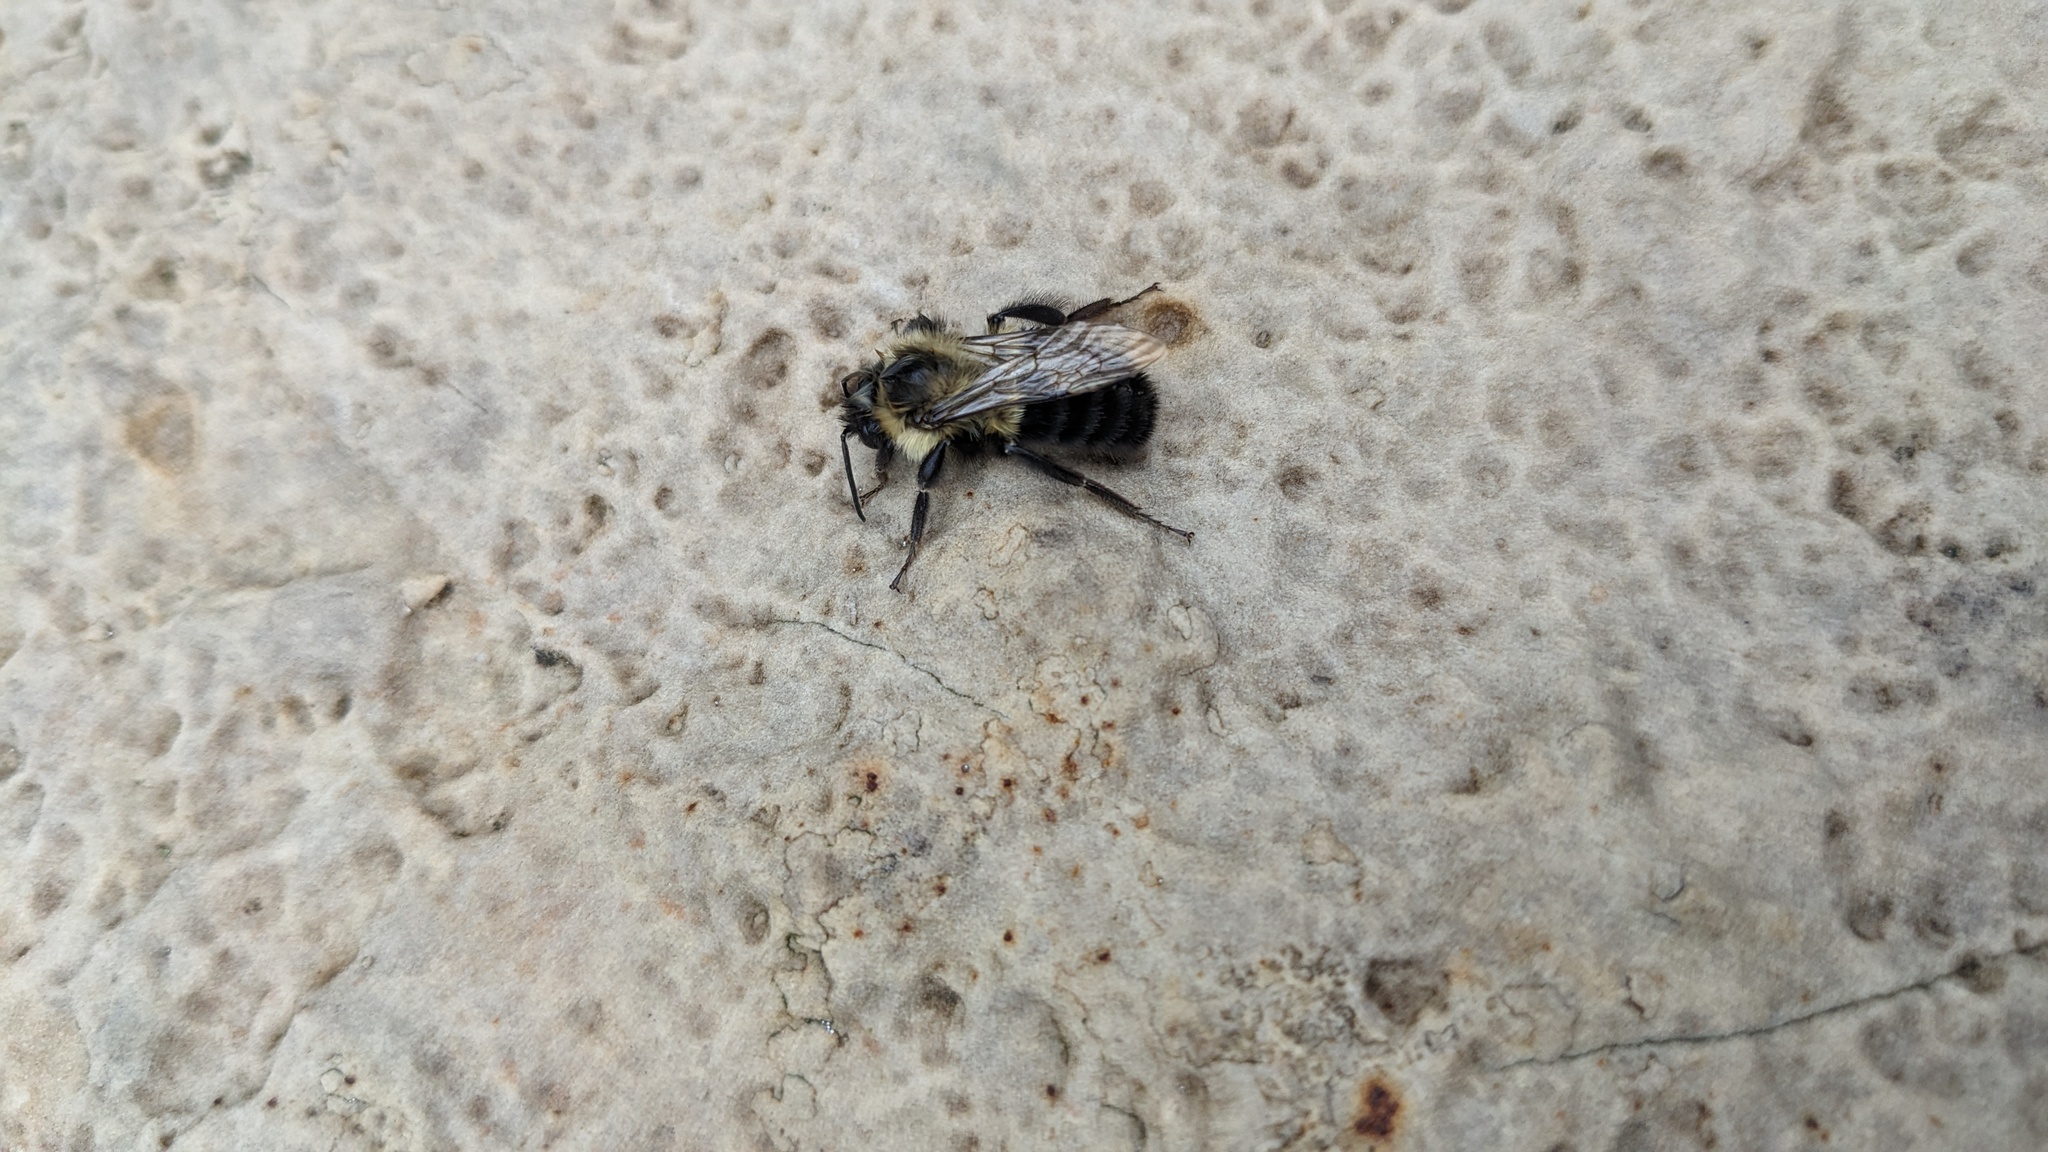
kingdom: Animalia
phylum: Arthropoda
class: Insecta
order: Hymenoptera
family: Apidae
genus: Bombus
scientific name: Bombus impatiens
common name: Common eastern bumble bee
